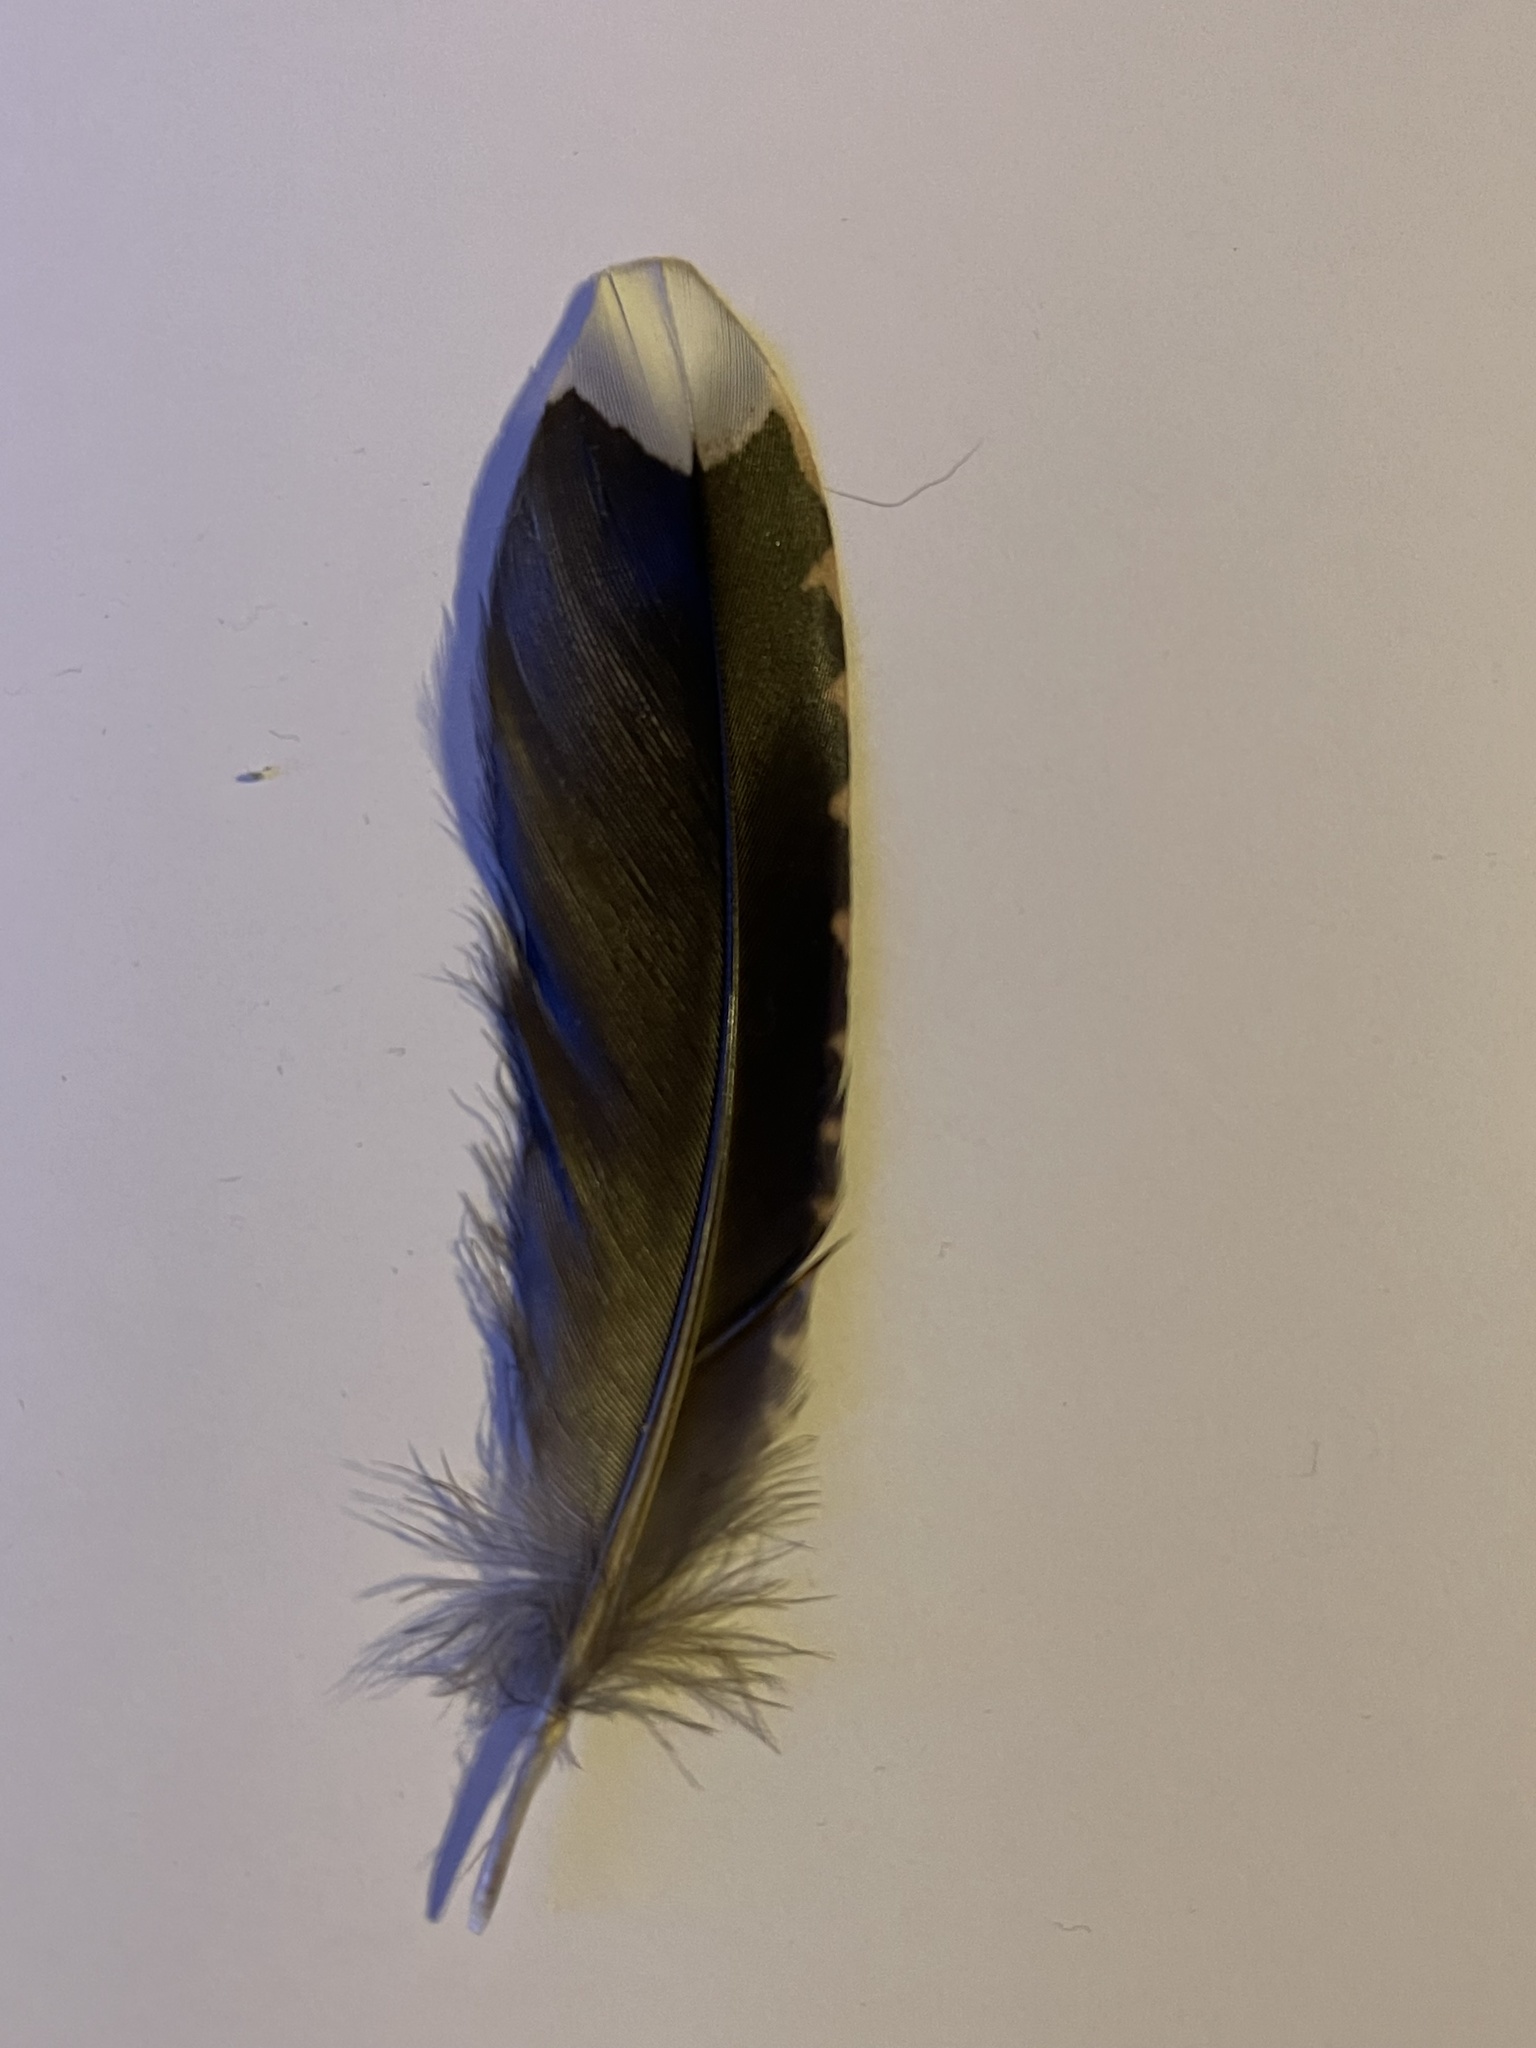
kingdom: Animalia
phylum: Chordata
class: Aves
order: Charadriiformes
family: Scolopacidae
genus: Scolopax
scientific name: Scolopax rusticola
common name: Eurasian woodcock
